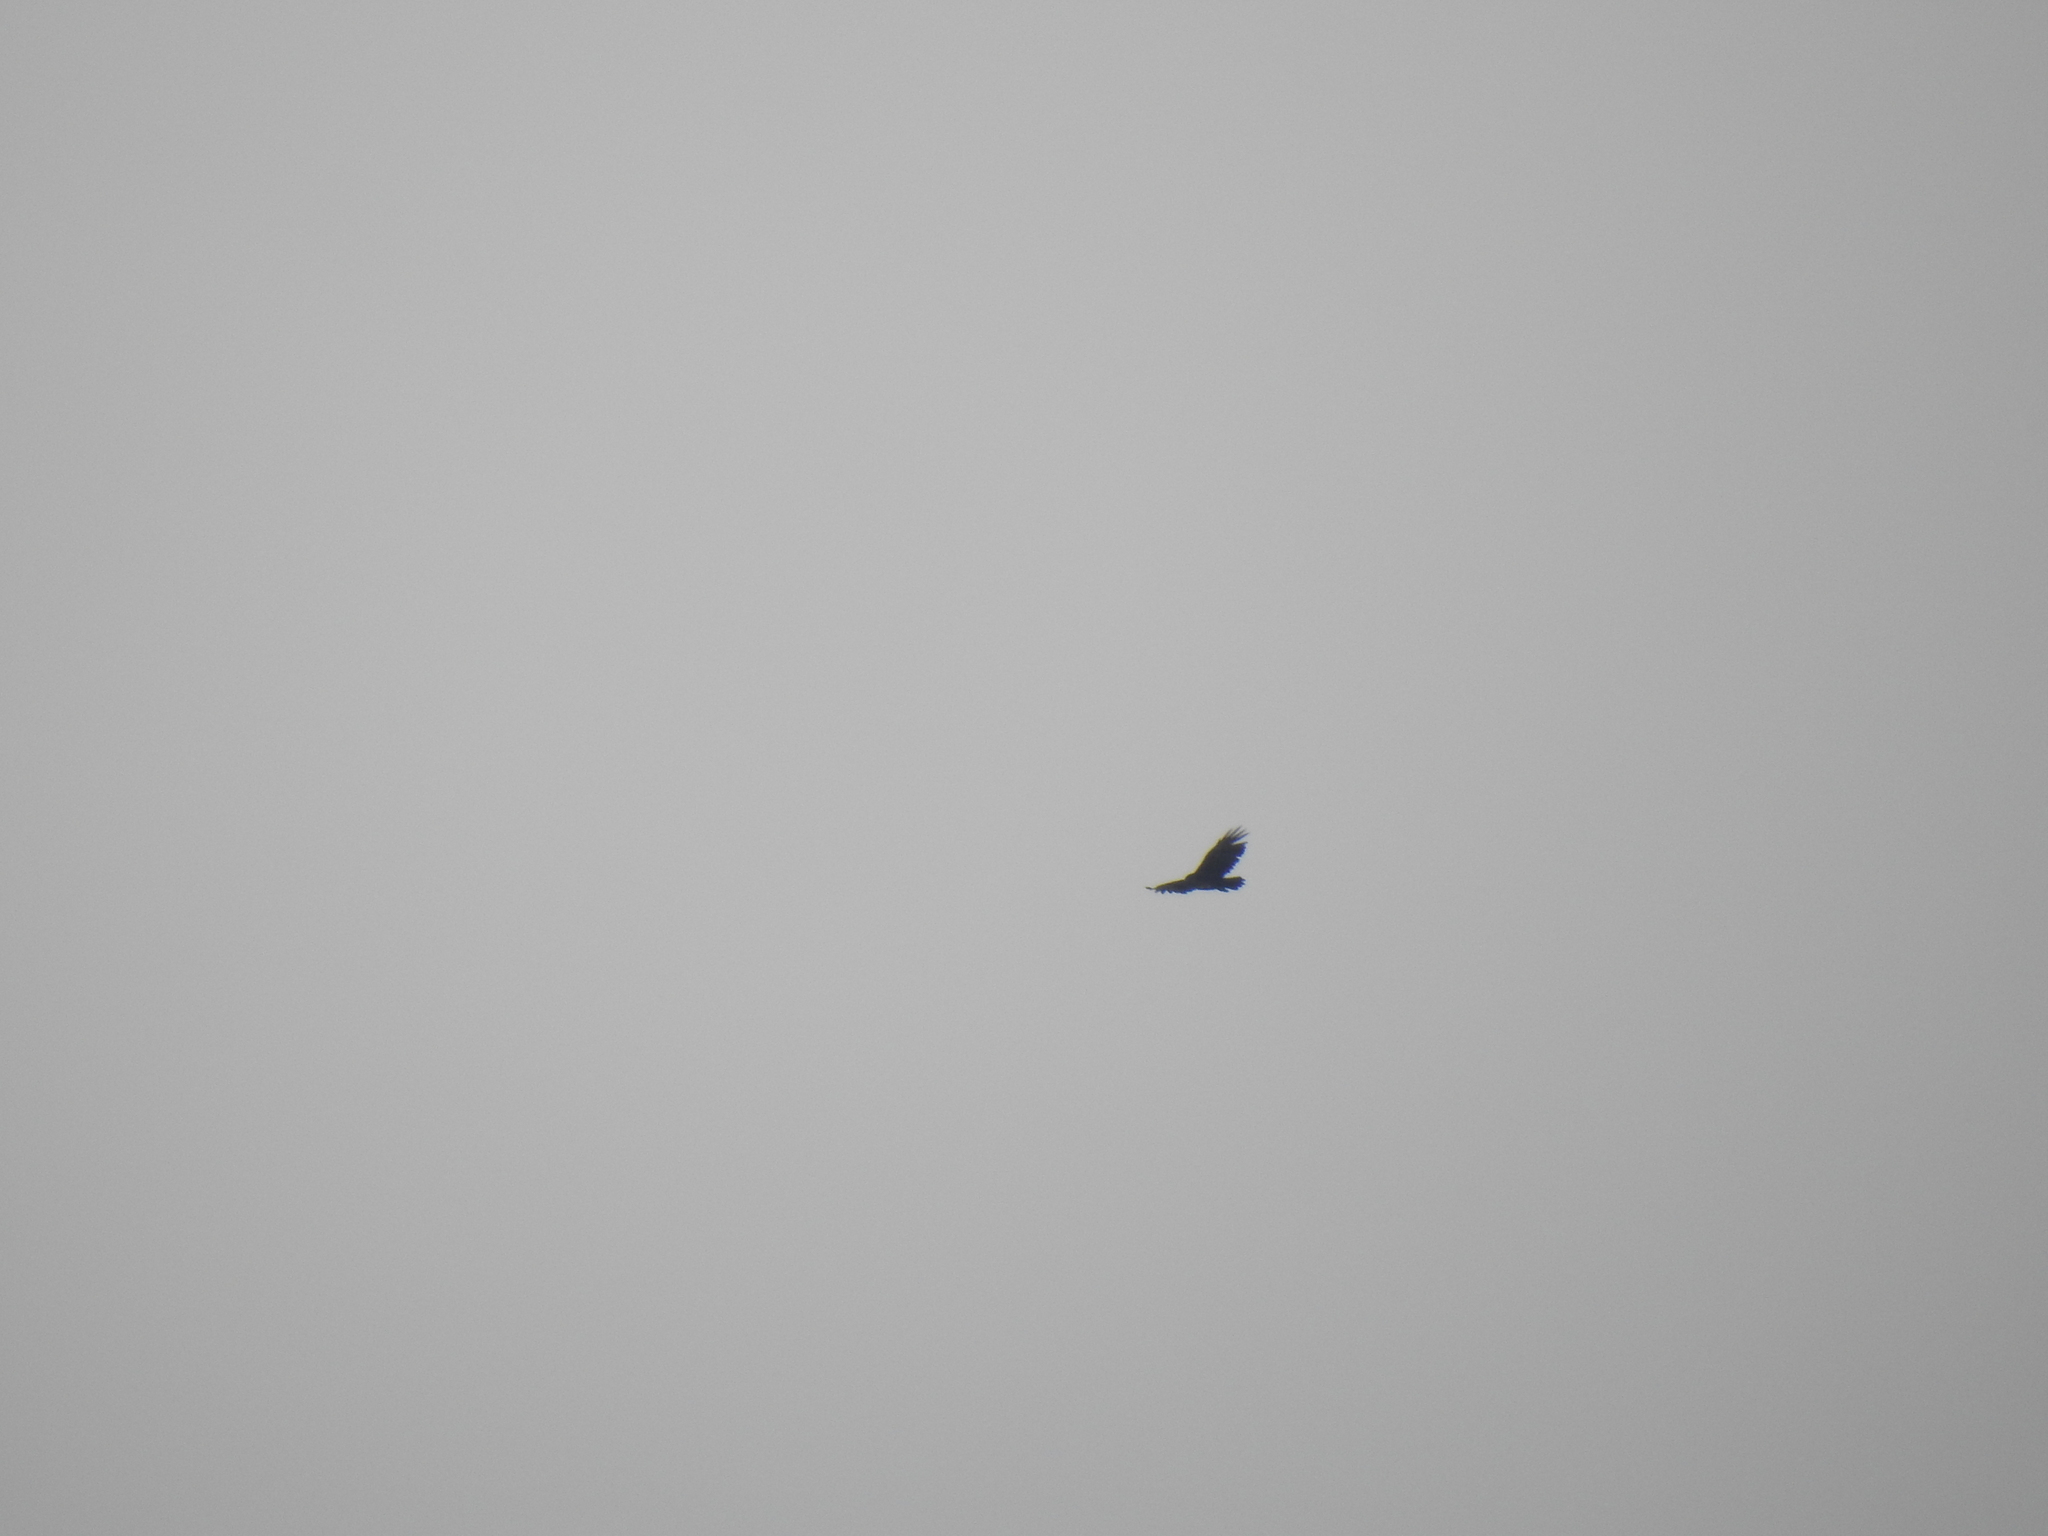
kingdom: Animalia
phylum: Chordata
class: Aves
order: Accipitriformes
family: Cathartidae
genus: Cathartes
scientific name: Cathartes aura
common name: Turkey vulture
